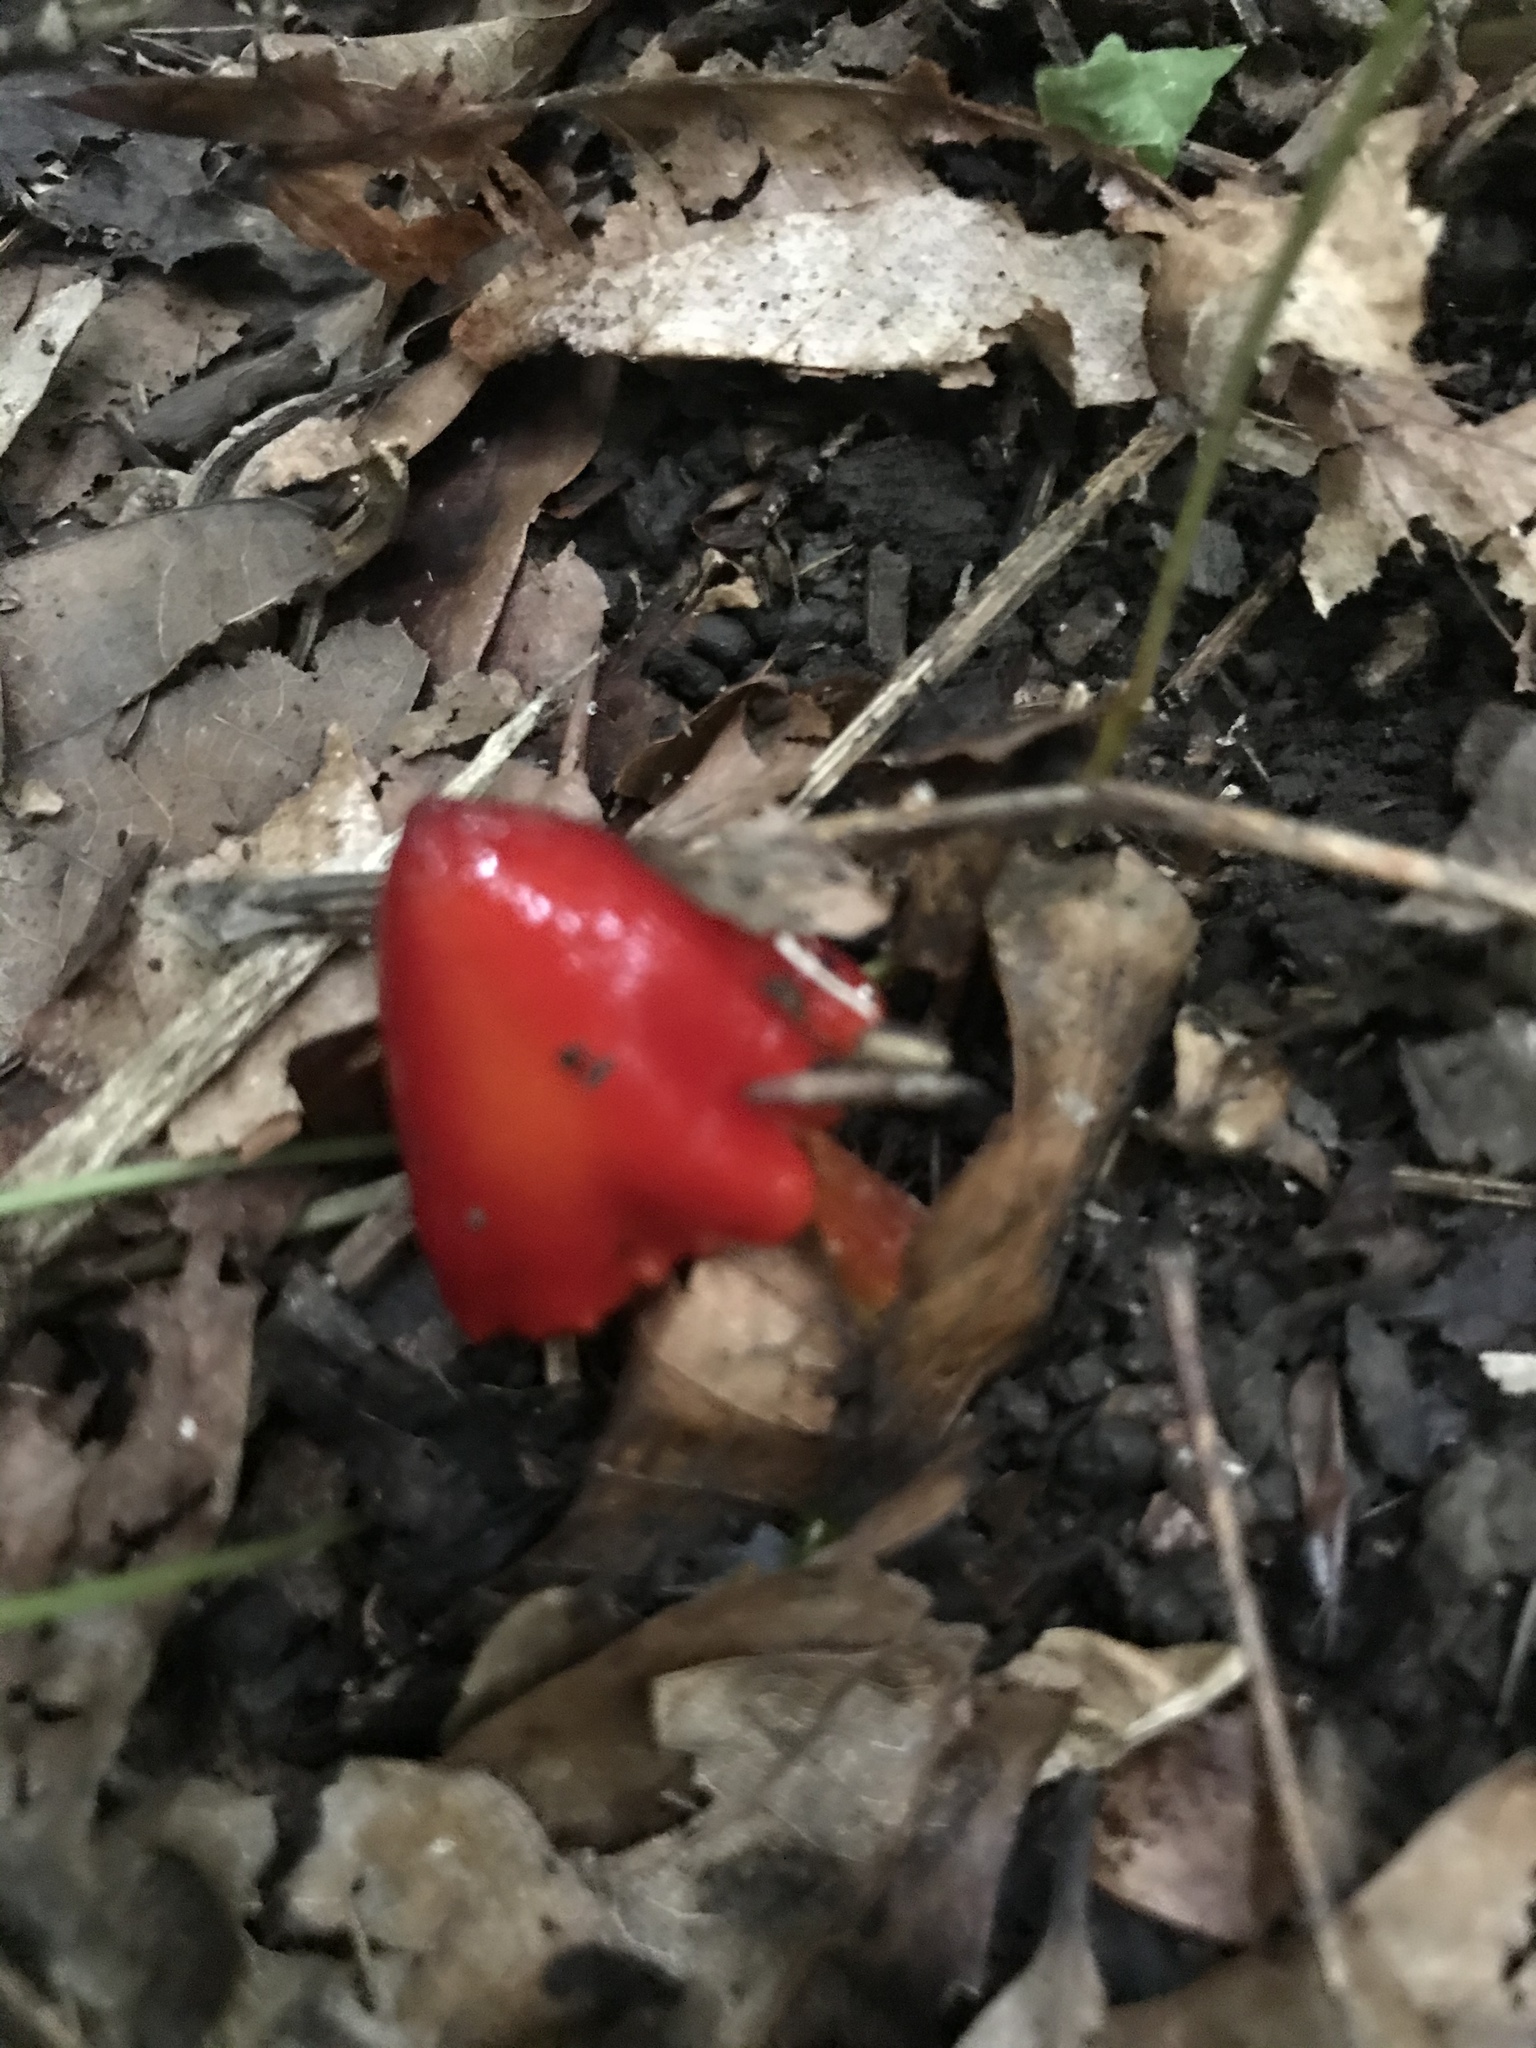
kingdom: Fungi
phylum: Basidiomycota
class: Agaricomycetes
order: Agaricales
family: Hygrophoraceae
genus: Hygrocybe
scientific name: Hygrocybe cuspidata
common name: Candy apple waxy cap
